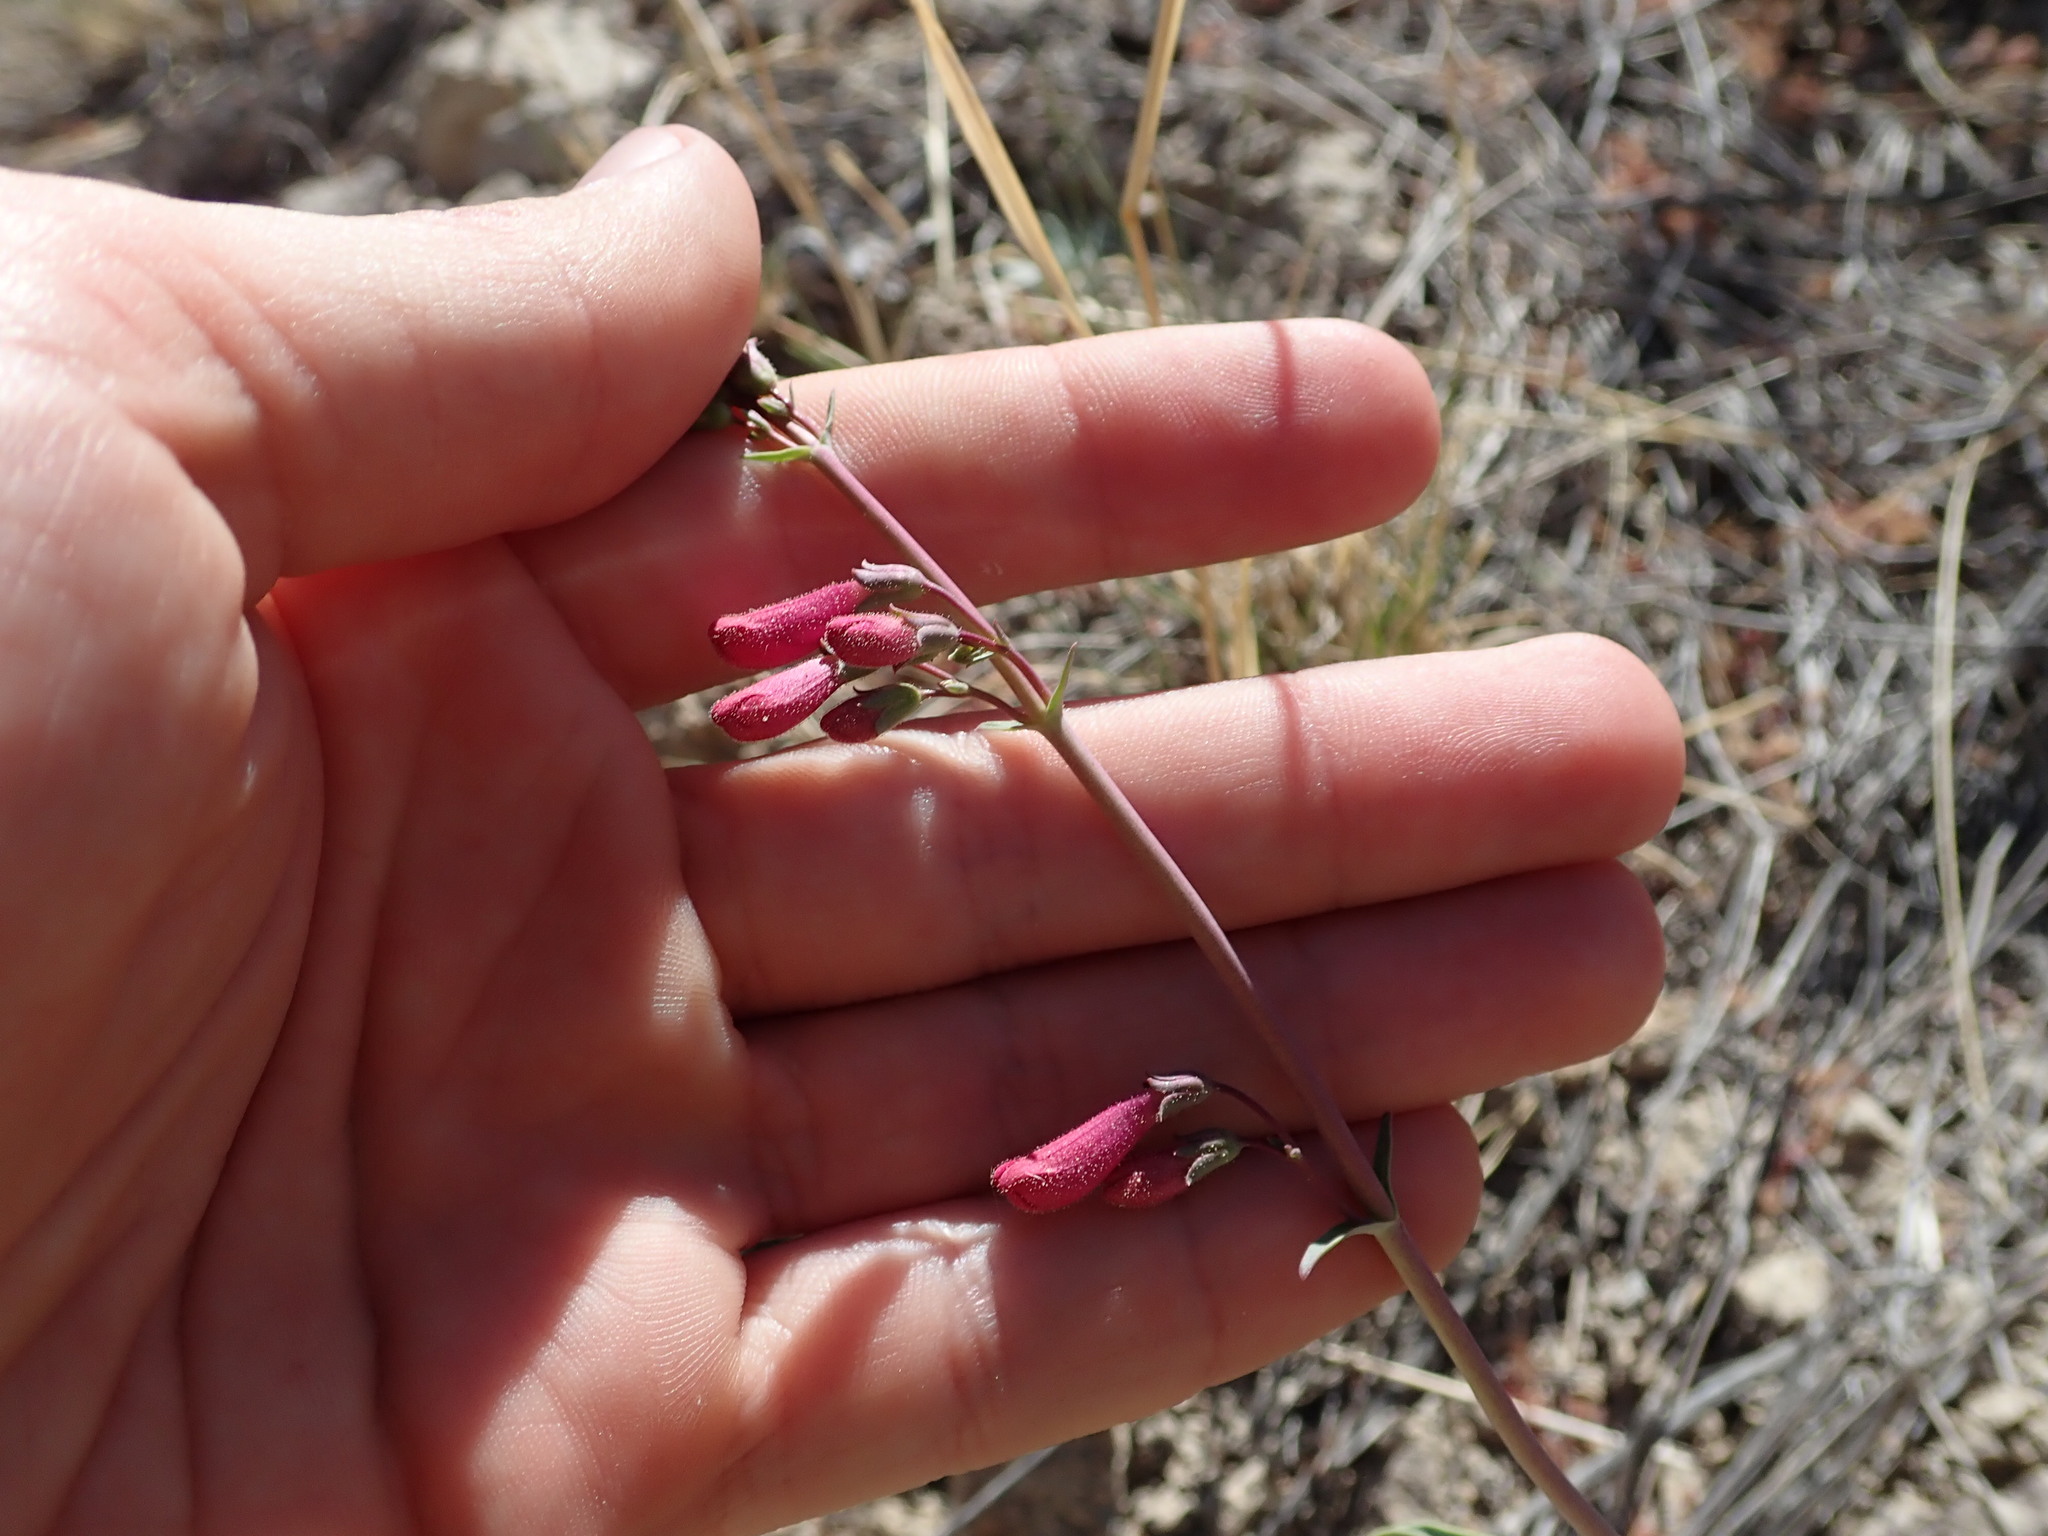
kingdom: Plantae
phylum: Tracheophyta
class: Magnoliopsida
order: Lamiales
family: Plantaginaceae
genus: Penstemon
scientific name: Penstemon parryi
